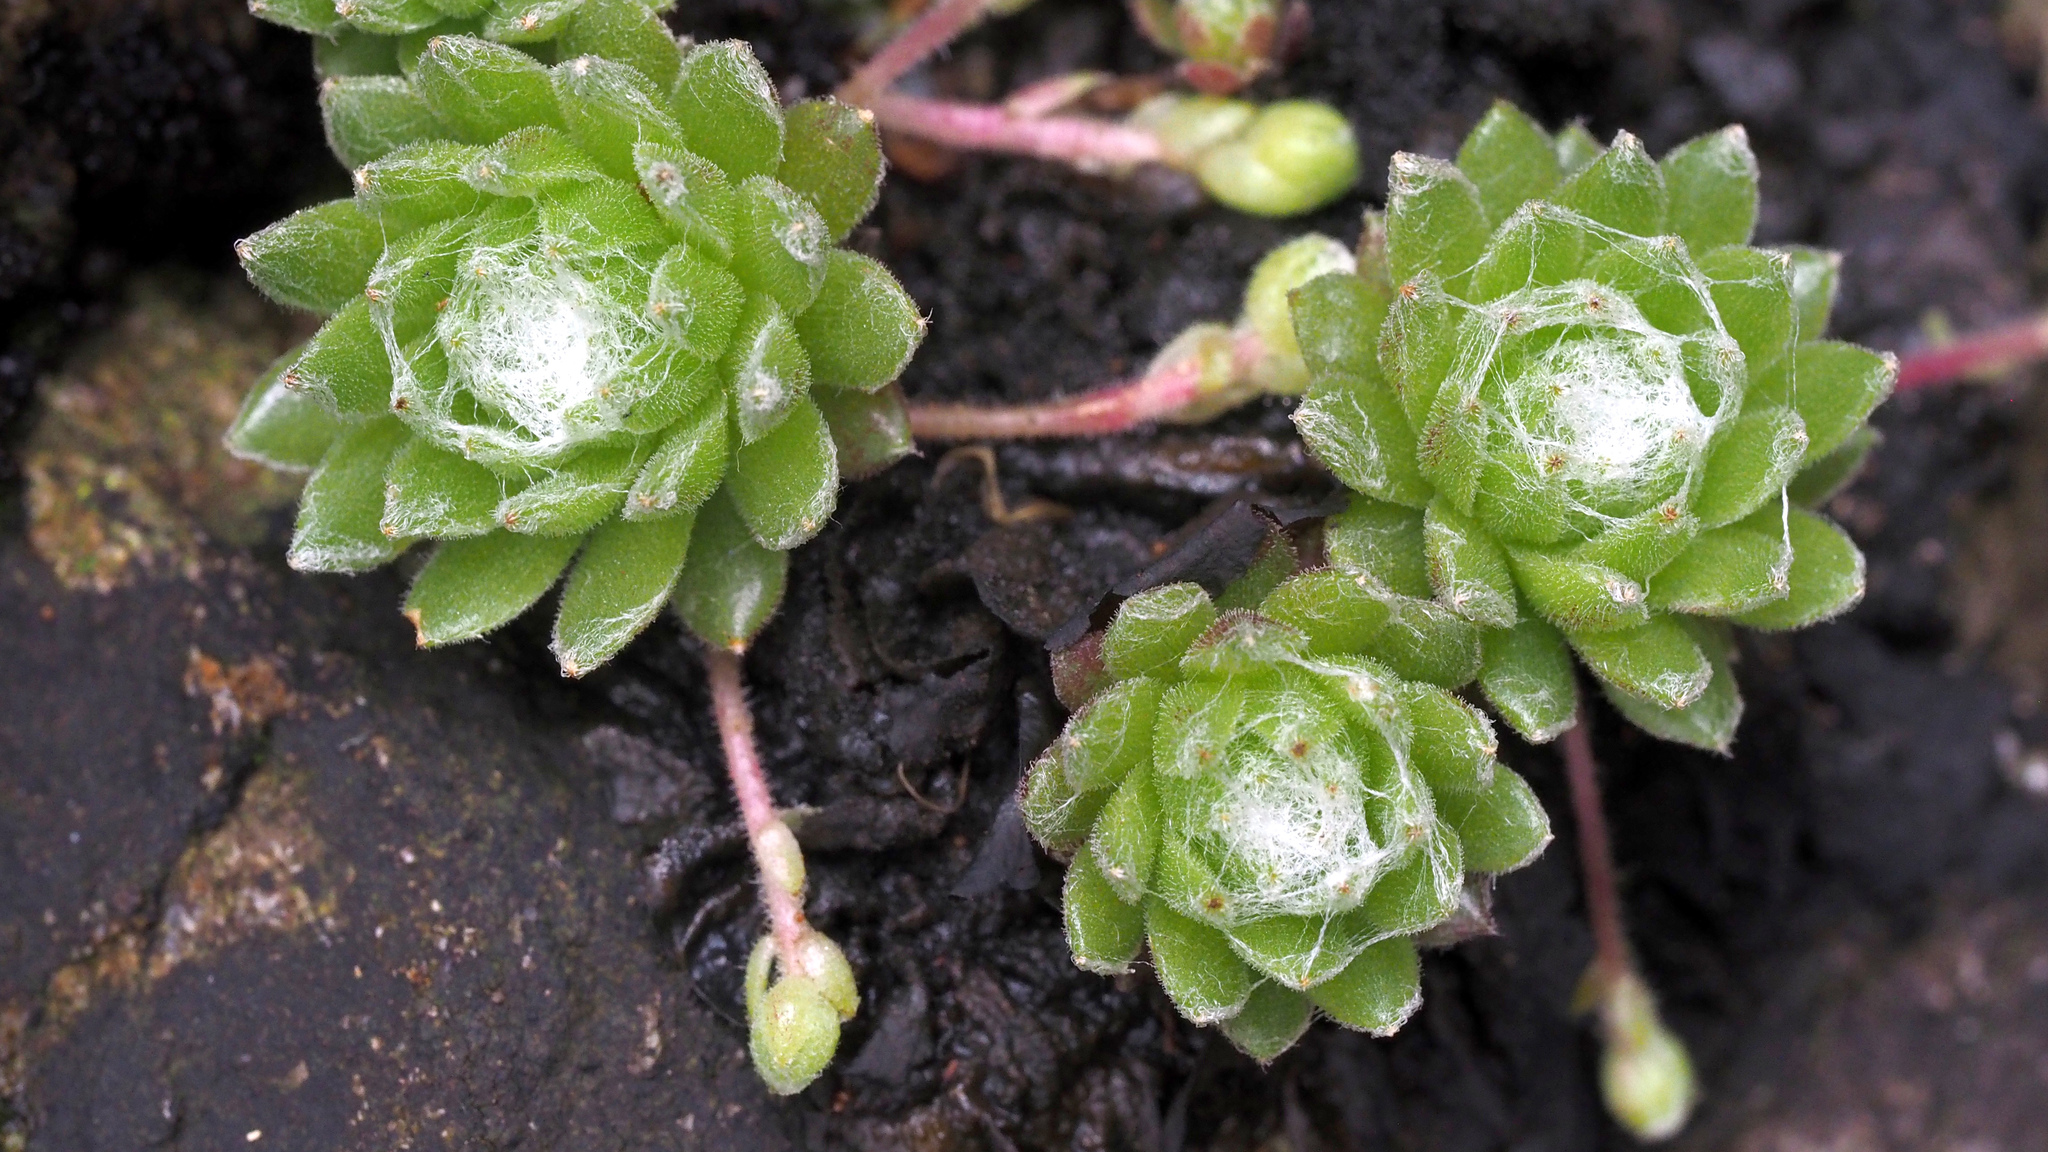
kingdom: Plantae
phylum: Tracheophyta
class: Magnoliopsida
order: Saxifragales
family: Crassulaceae
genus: Sempervivum
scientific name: Sempervivum arachnoideum
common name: Cobweb house-leek
